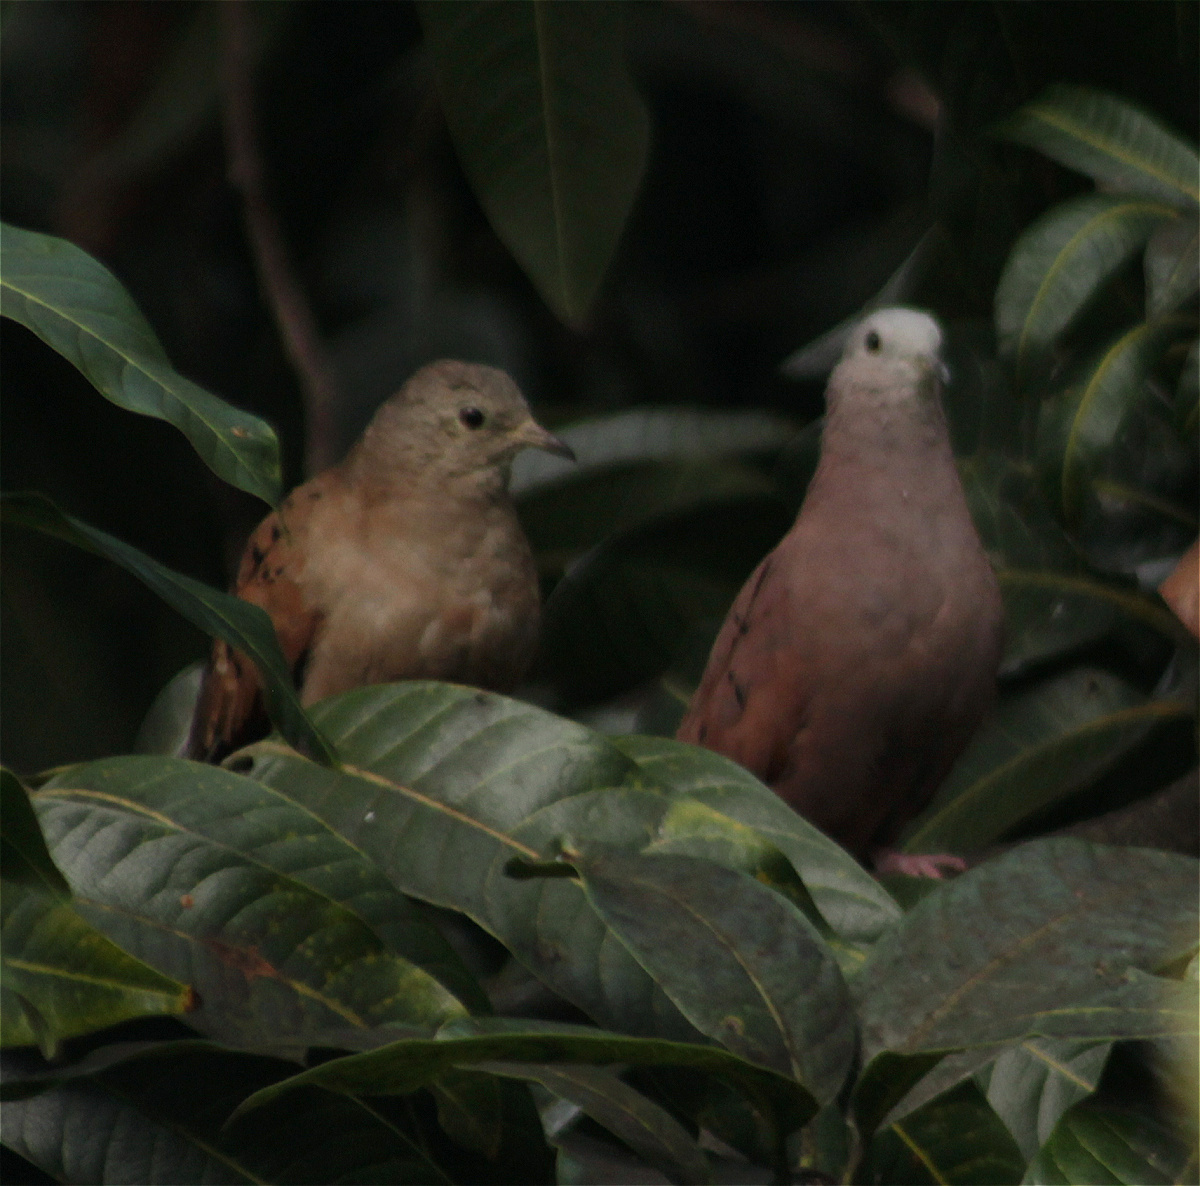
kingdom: Animalia
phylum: Chordata
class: Aves
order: Columbiformes
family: Columbidae
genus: Columbina
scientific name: Columbina talpacoti
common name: Ruddy ground dove
